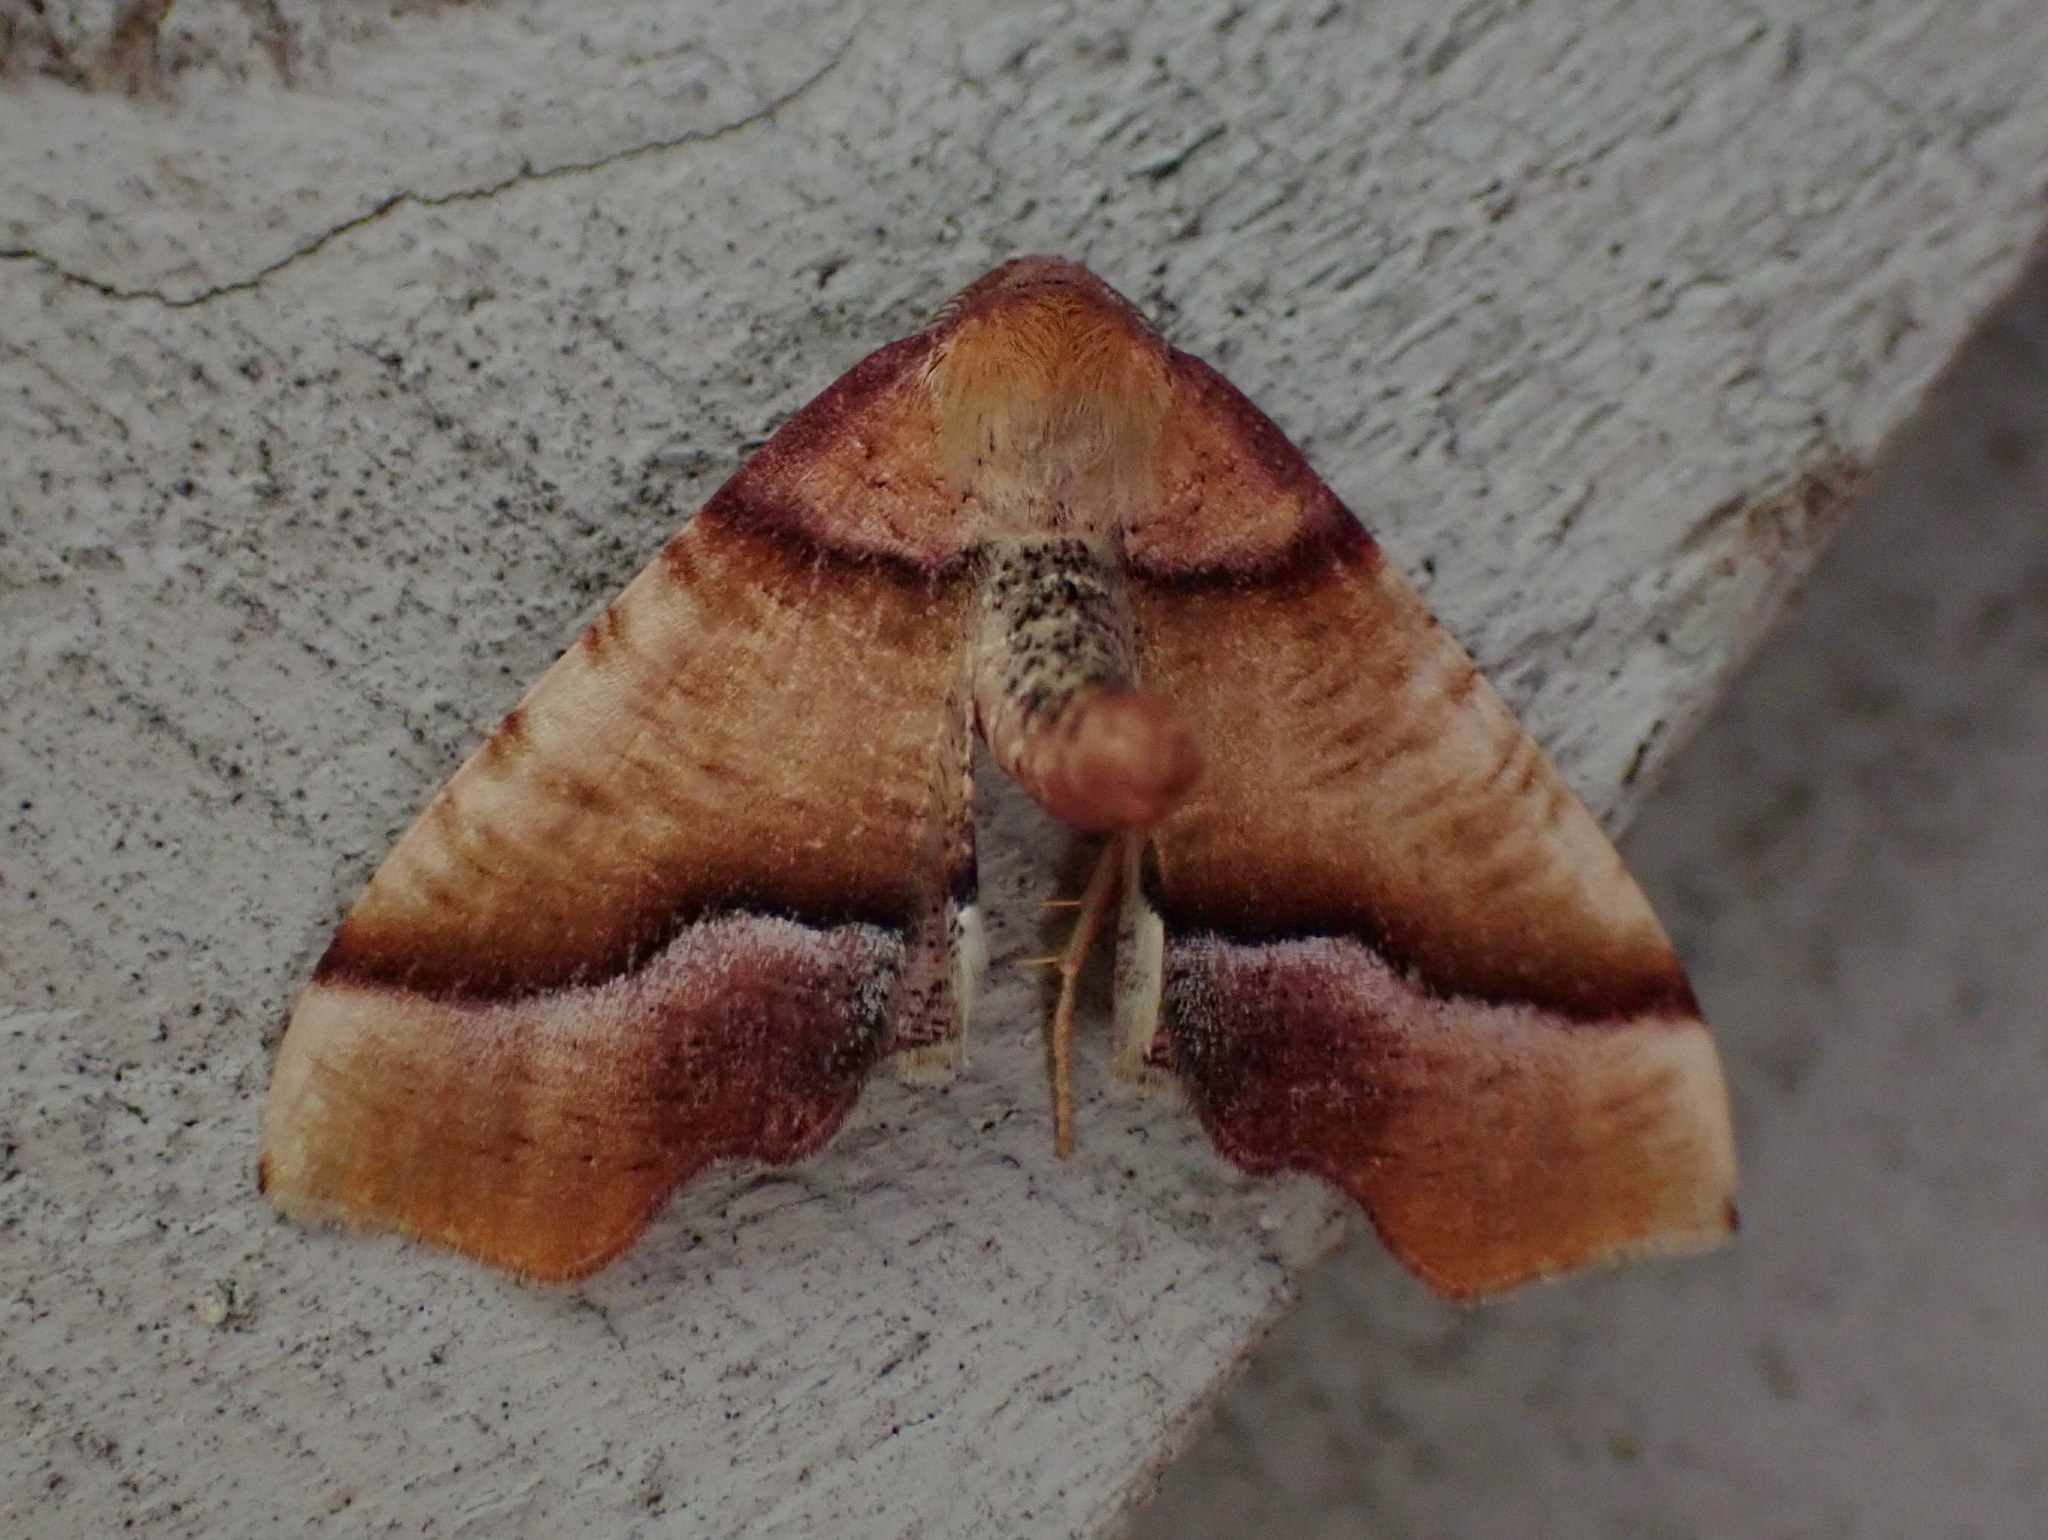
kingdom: Animalia
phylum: Arthropoda
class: Insecta
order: Lepidoptera
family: Geometridae
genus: Plagodis
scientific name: Plagodis phlogosaria
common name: Straight-lined plagodis
